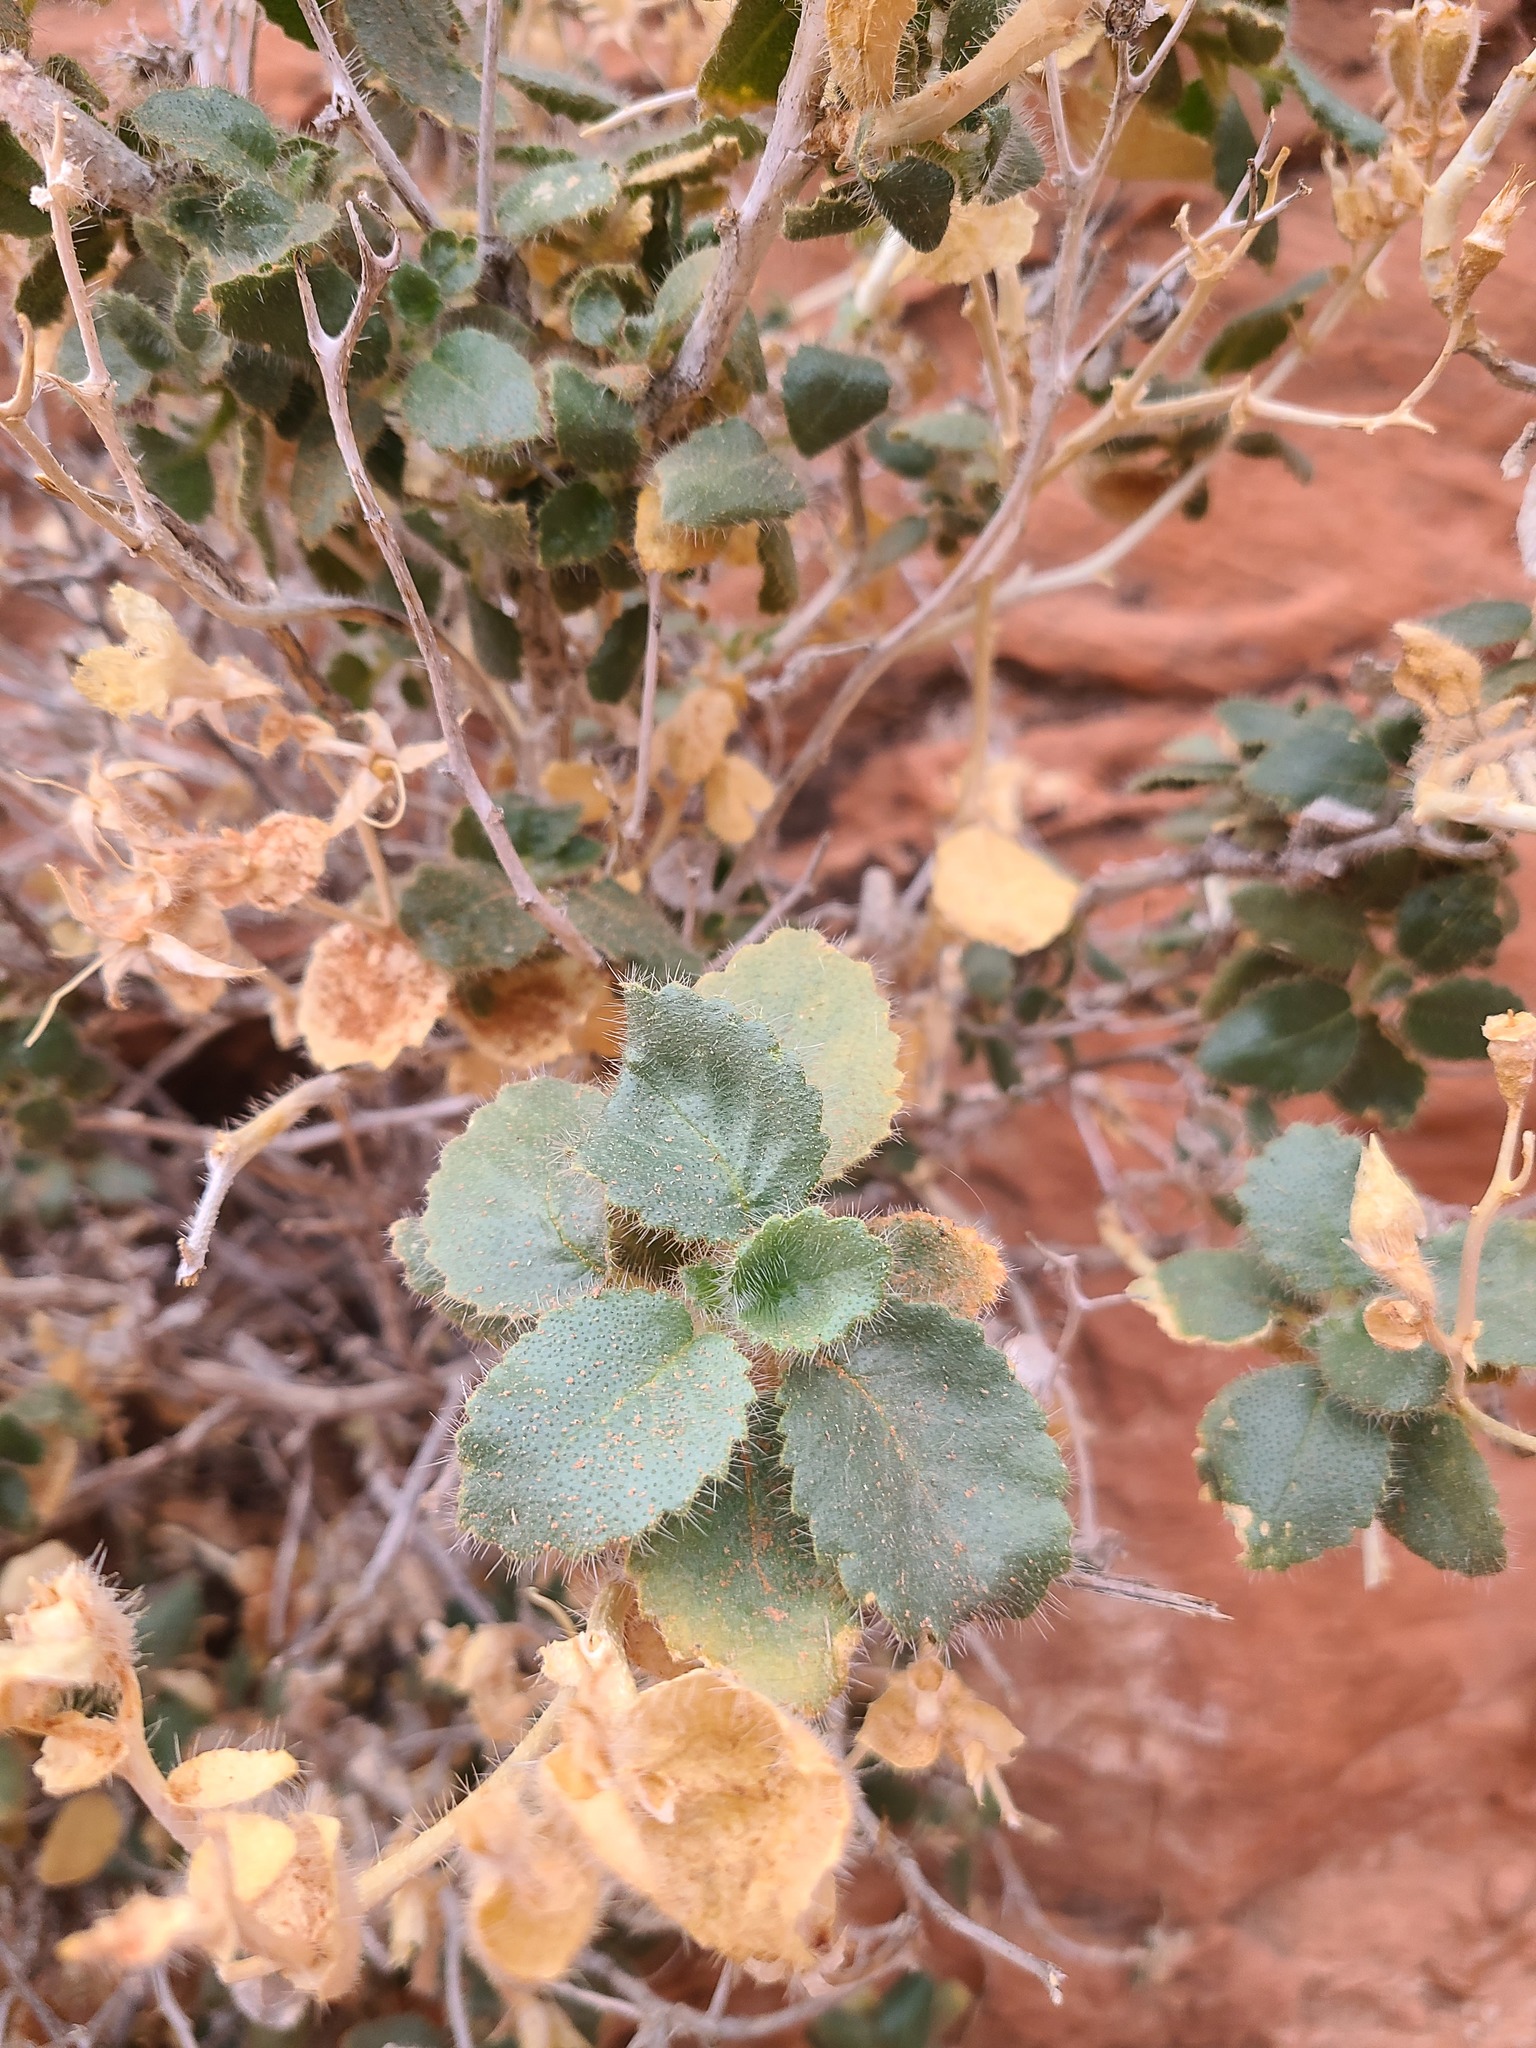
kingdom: Plantae
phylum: Tracheophyta
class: Magnoliopsida
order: Cornales
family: Loasaceae
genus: Eucnide
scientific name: Eucnide urens
